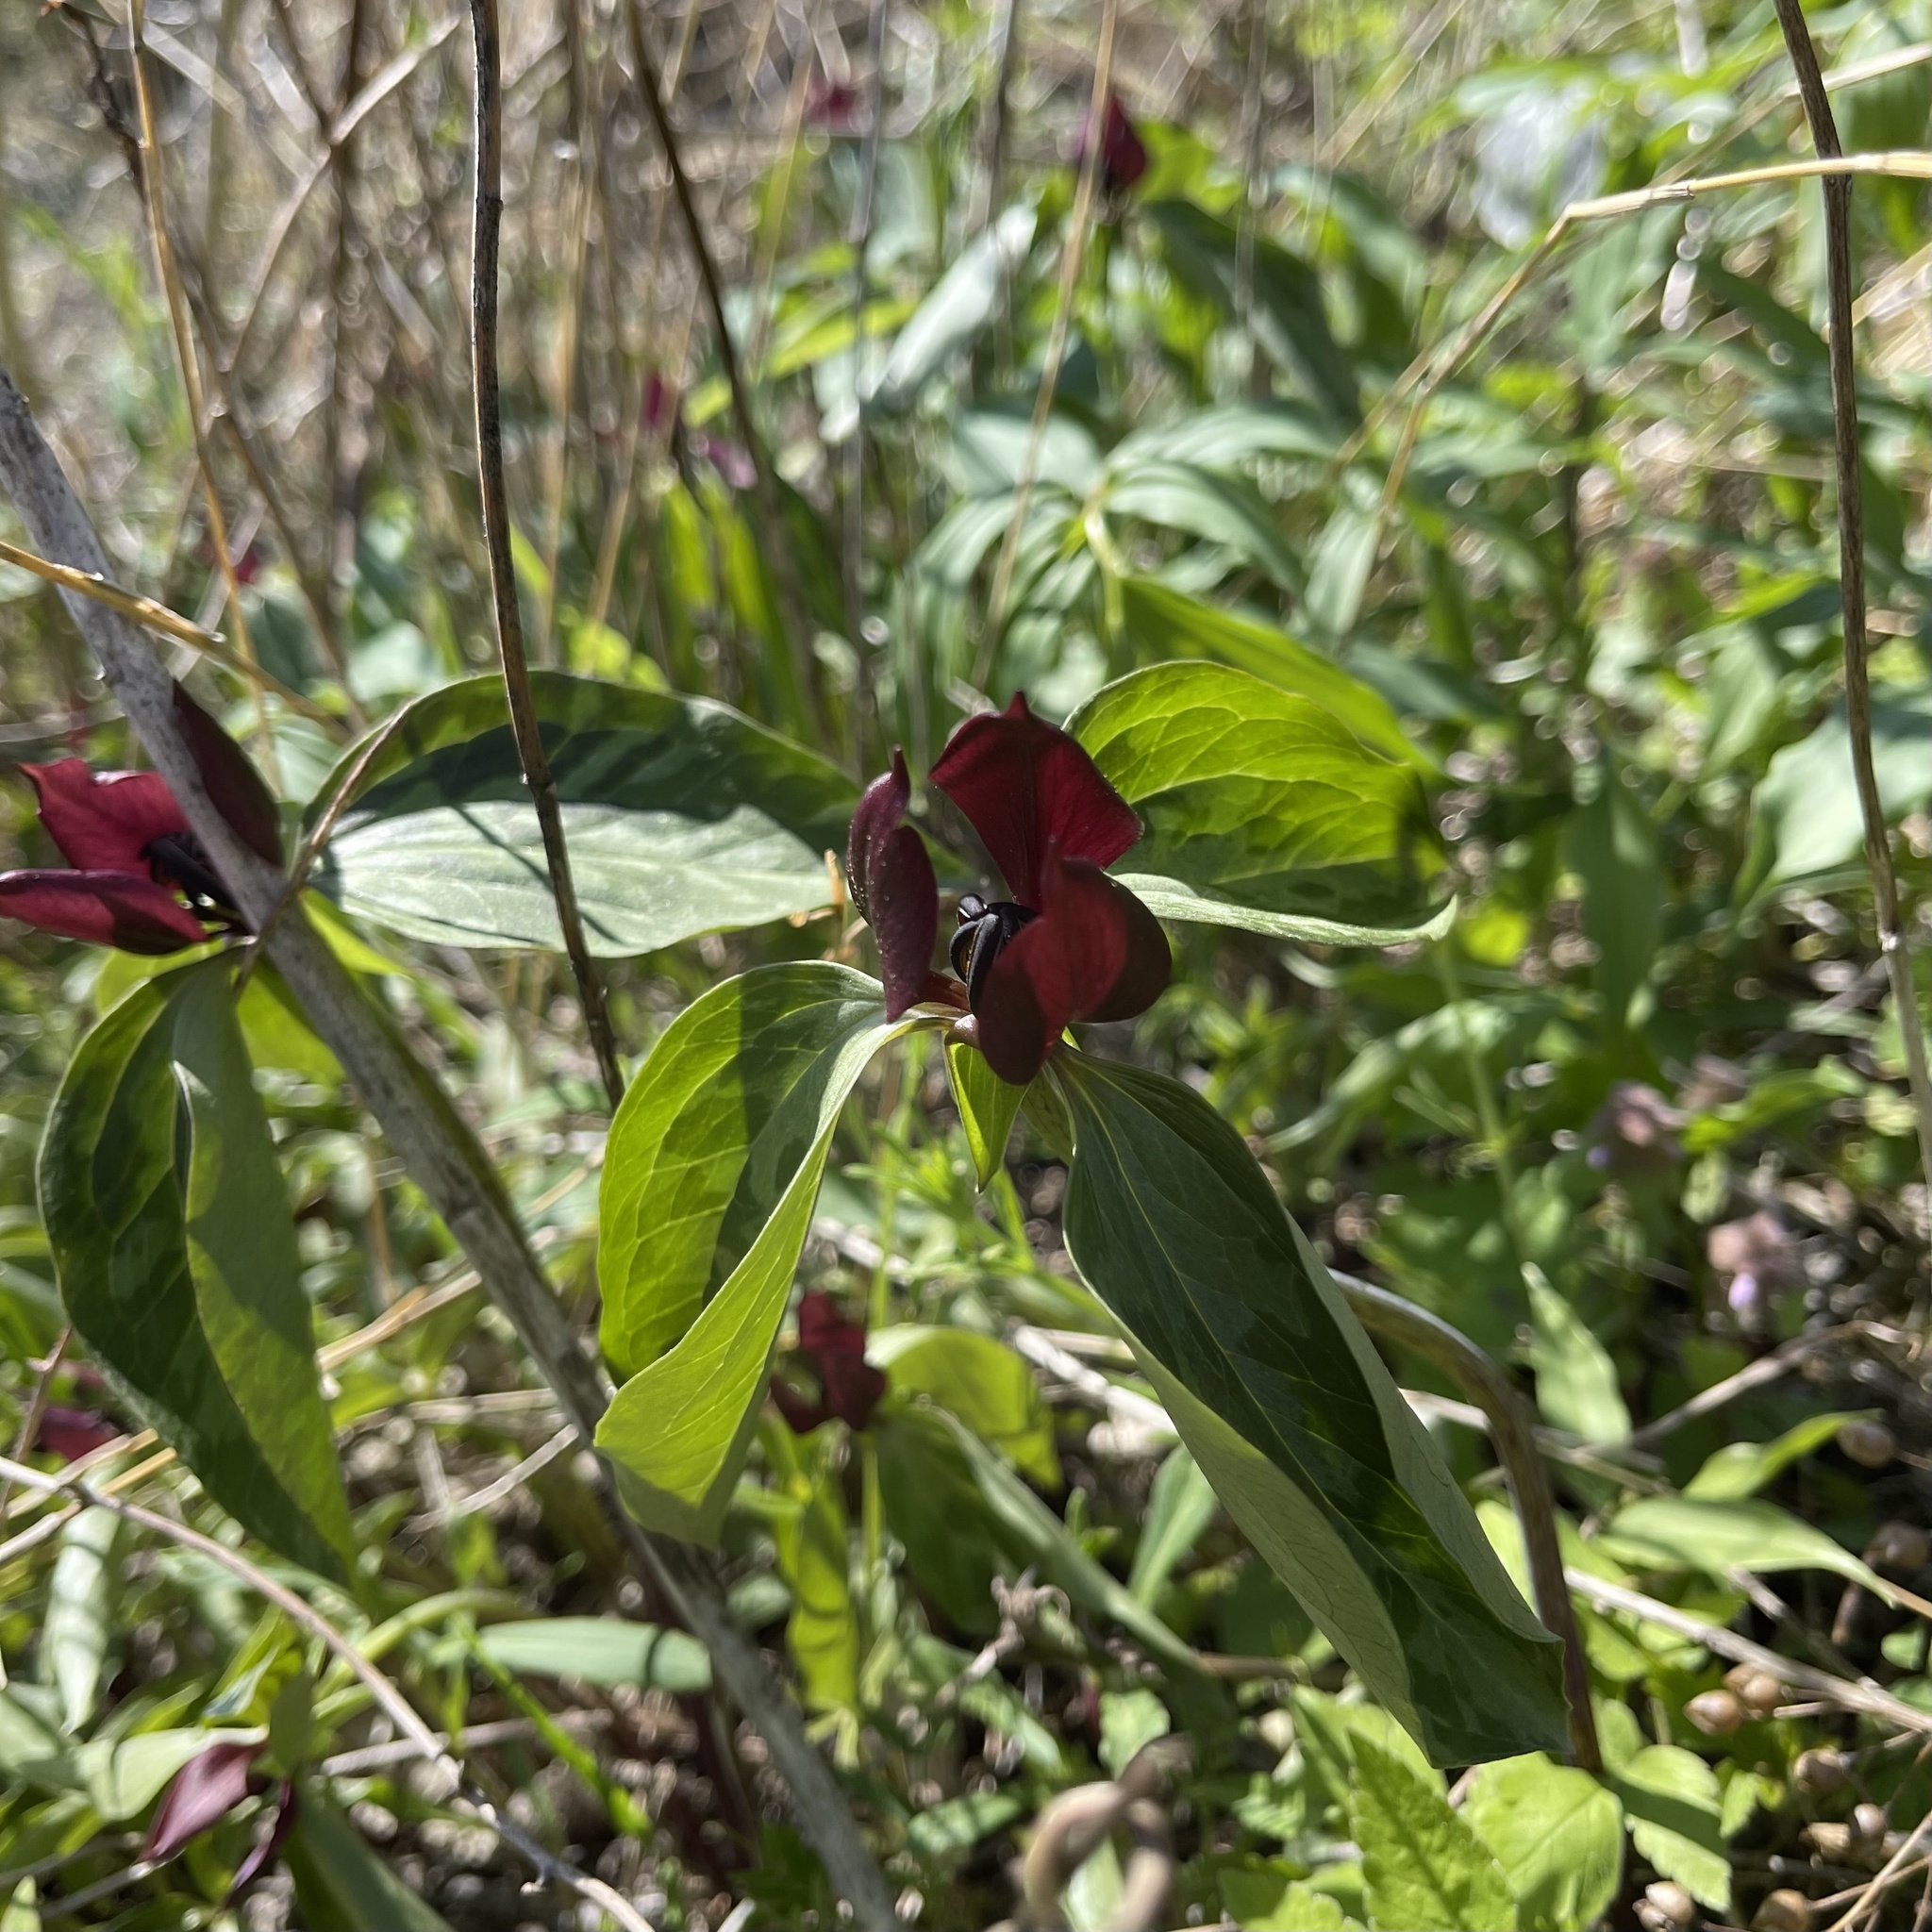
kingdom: Plantae
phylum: Tracheophyta
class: Liliopsida
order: Liliales
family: Melanthiaceae
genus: Trillium
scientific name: Trillium recurvatum
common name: Bloody butcher
